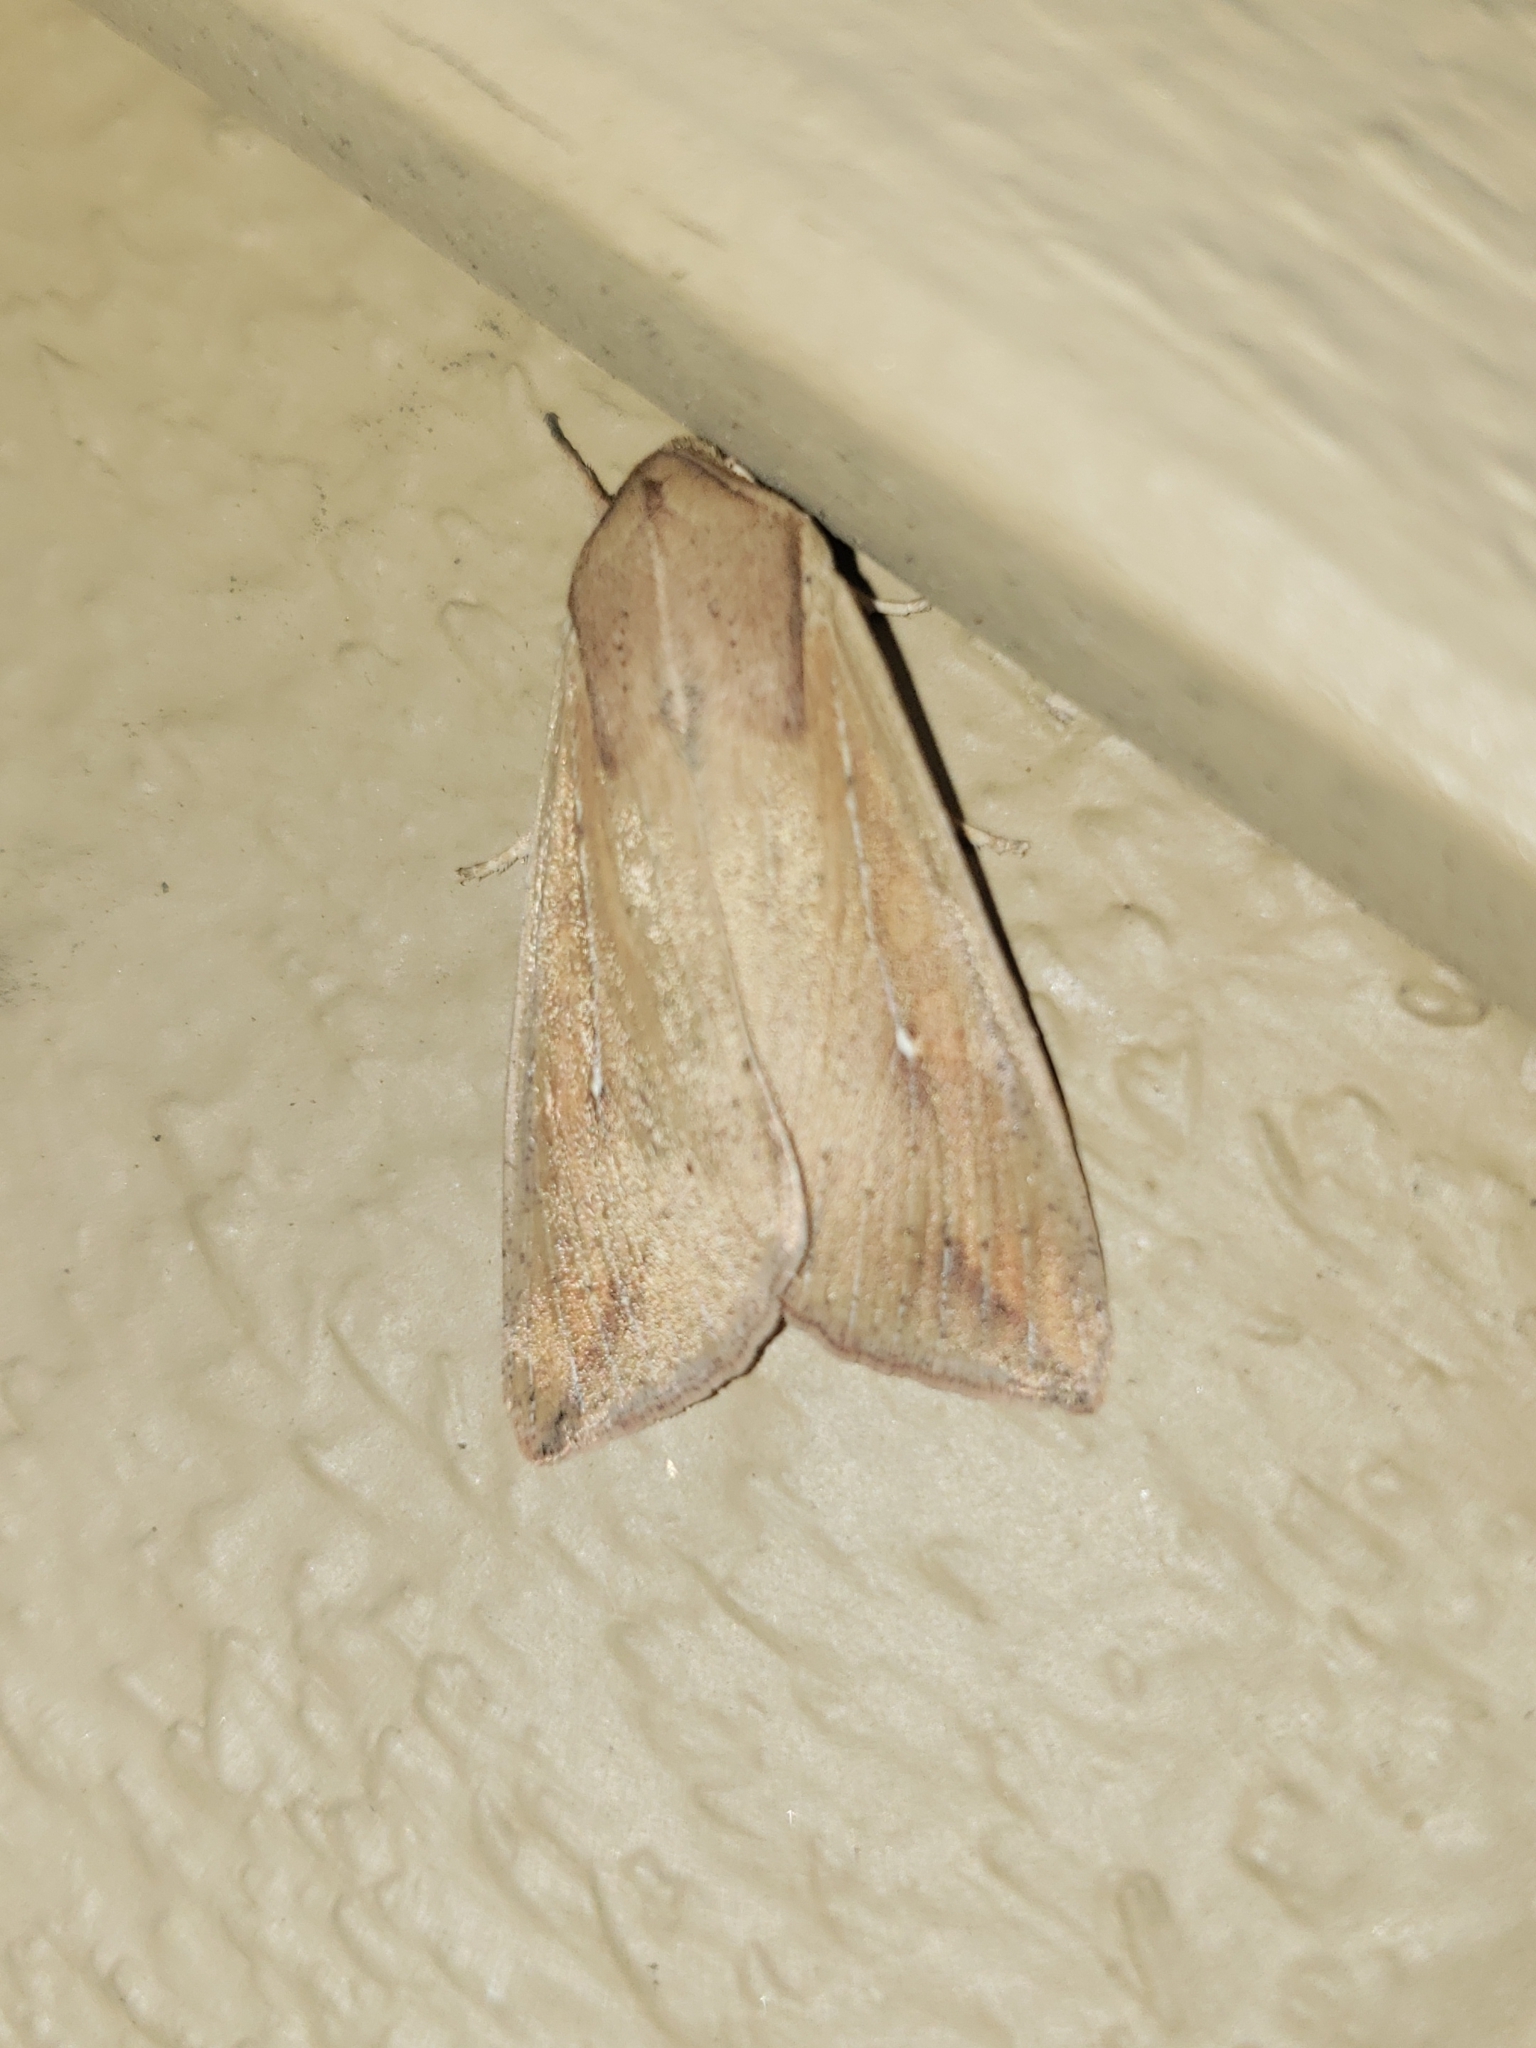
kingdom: Animalia
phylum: Arthropoda
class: Insecta
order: Lepidoptera
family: Noctuidae
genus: Mythimna
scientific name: Mythimna unipuncta
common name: White-speck
